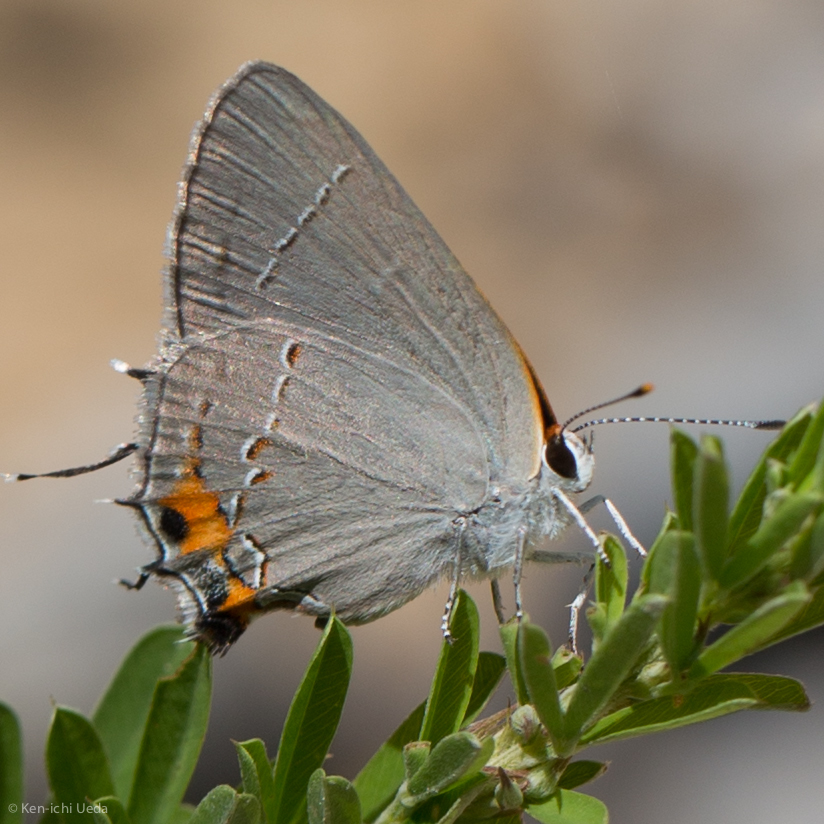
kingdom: Animalia
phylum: Arthropoda
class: Insecta
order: Lepidoptera
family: Lycaenidae
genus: Strymon
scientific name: Strymon melinus
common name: Gray hairstreak
